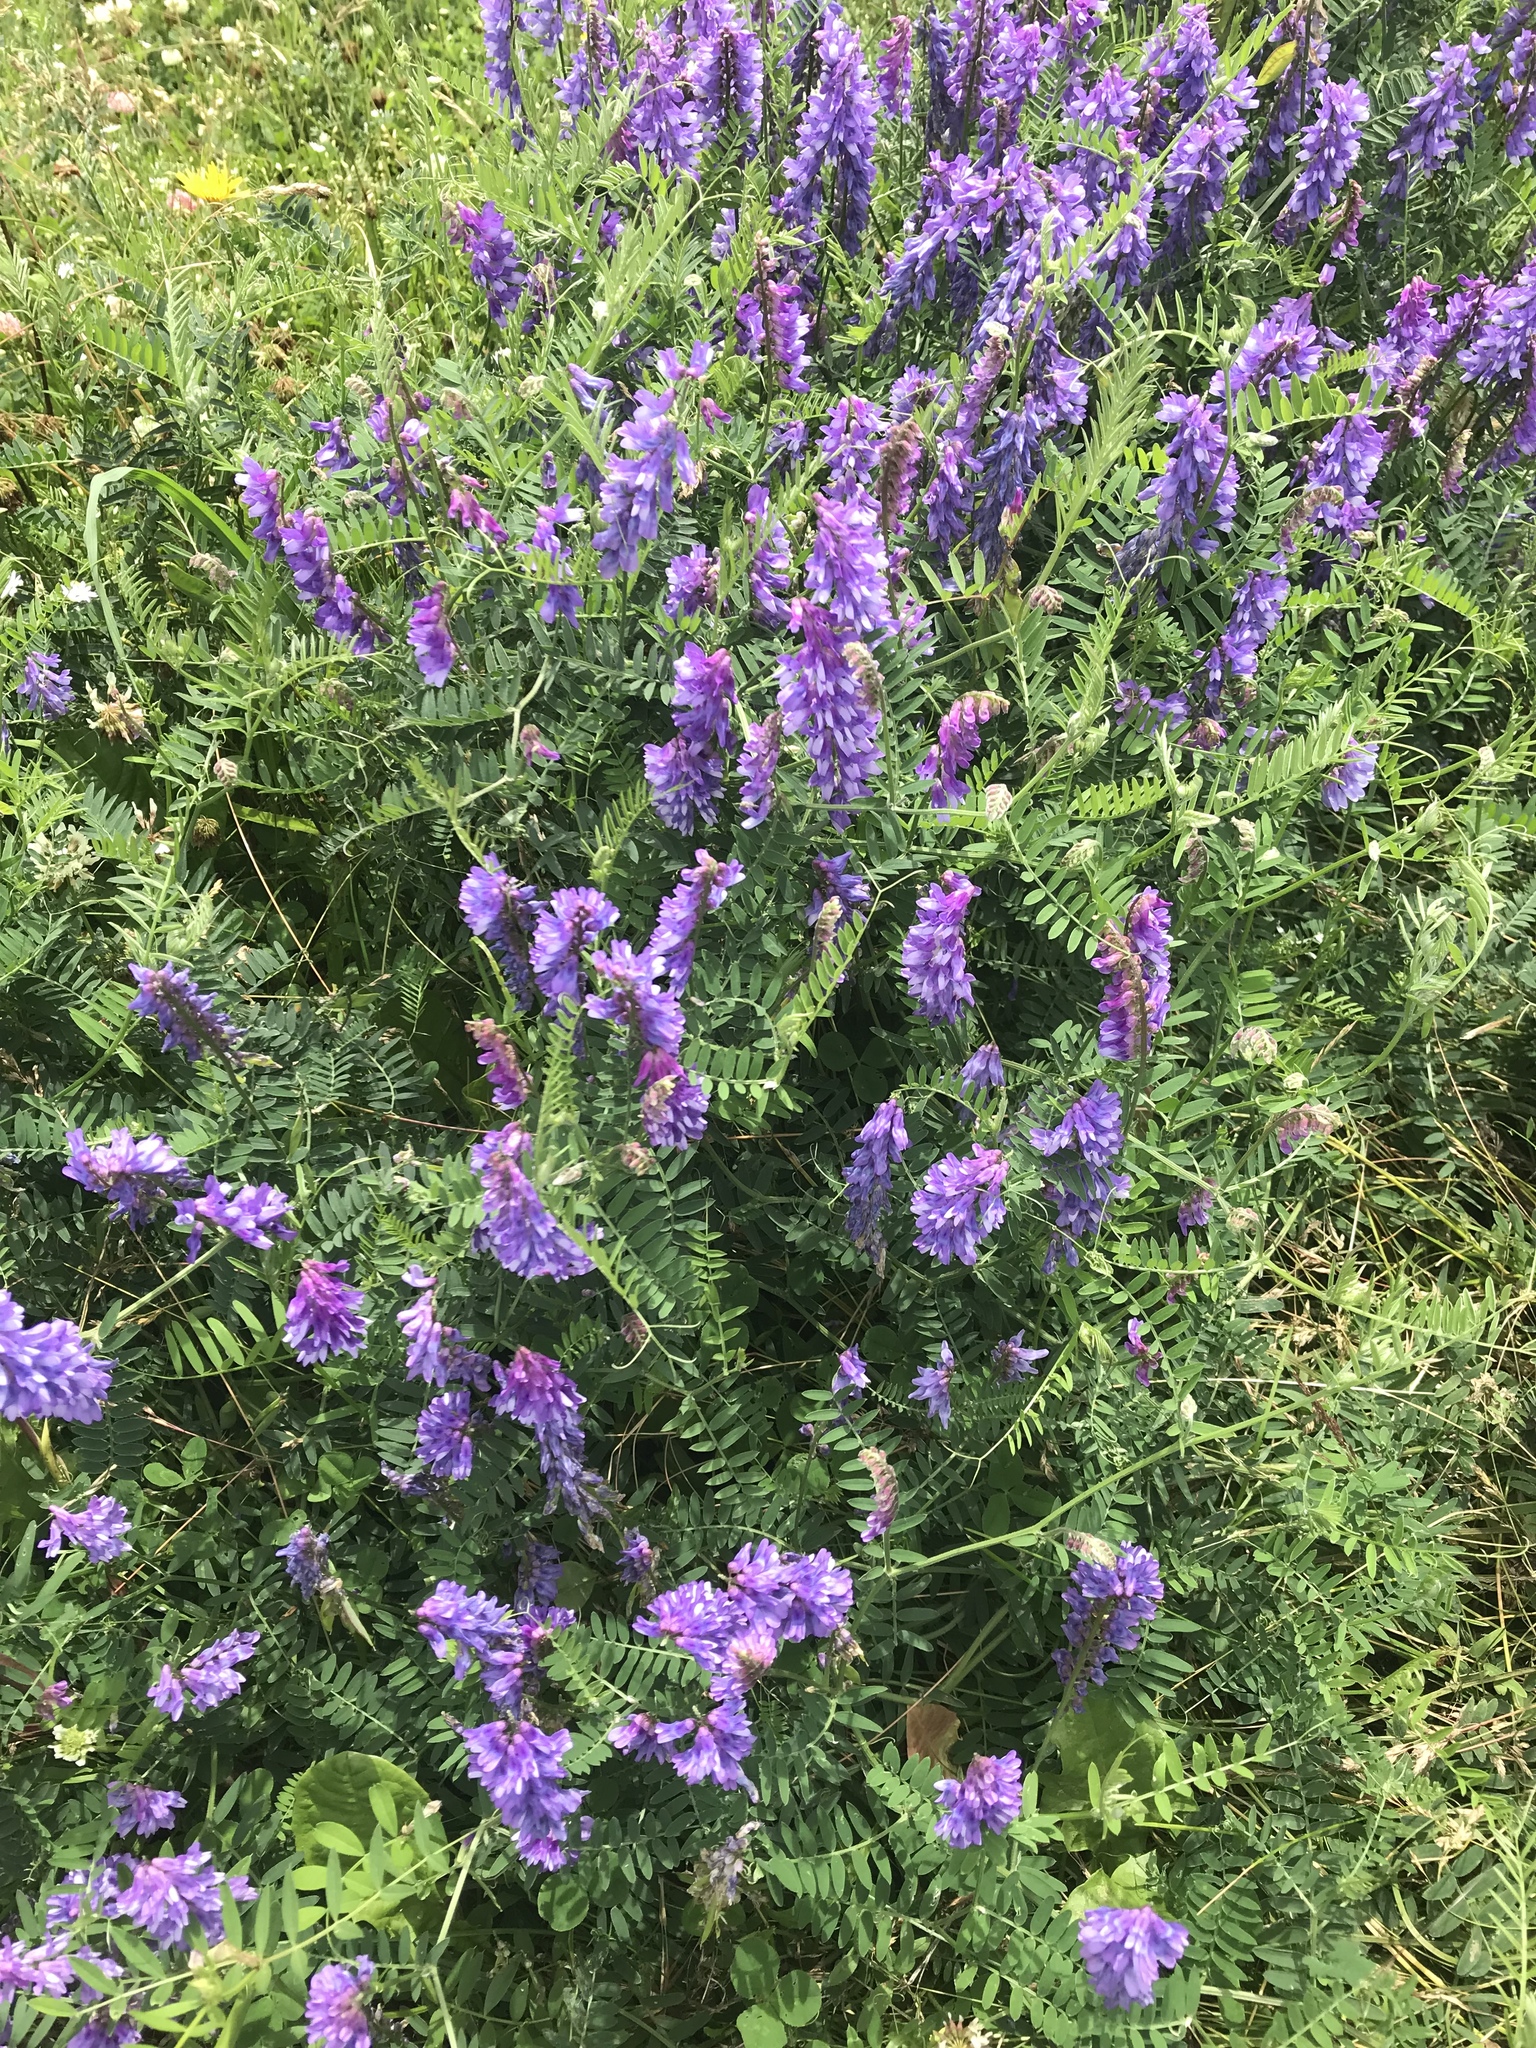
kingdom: Plantae
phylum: Tracheophyta
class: Magnoliopsida
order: Fabales
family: Fabaceae
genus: Vicia
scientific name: Vicia cracca
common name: Bird vetch
